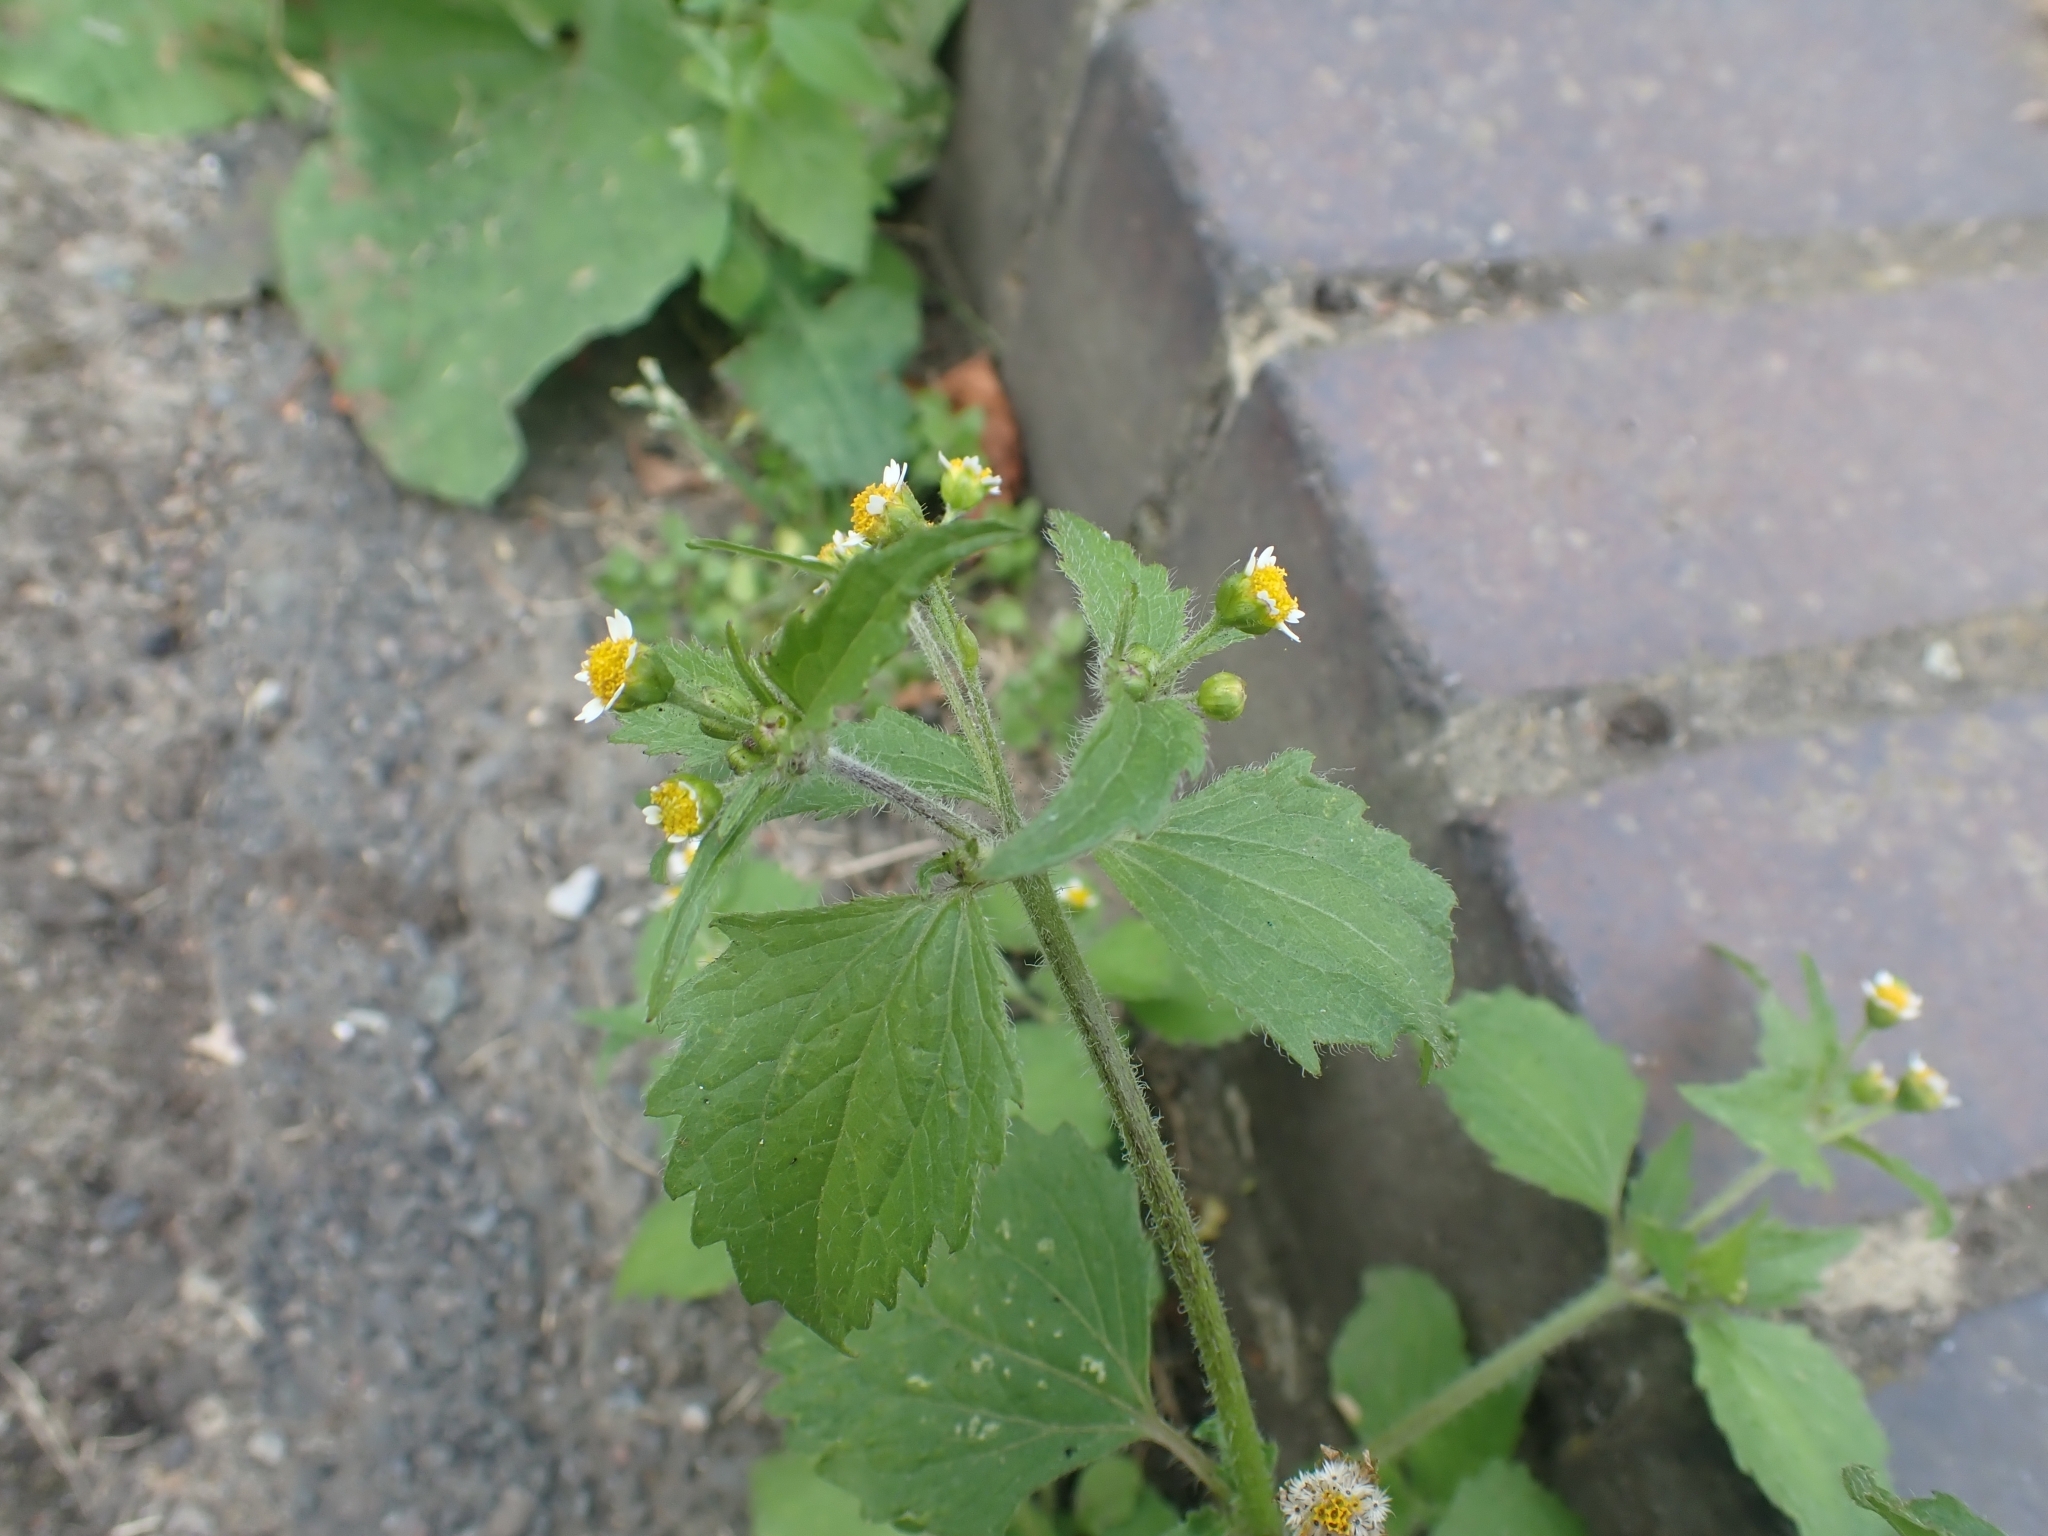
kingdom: Plantae
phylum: Tracheophyta
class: Magnoliopsida
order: Asterales
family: Asteraceae
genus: Galinsoga
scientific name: Galinsoga quadriradiata
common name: Shaggy soldier
